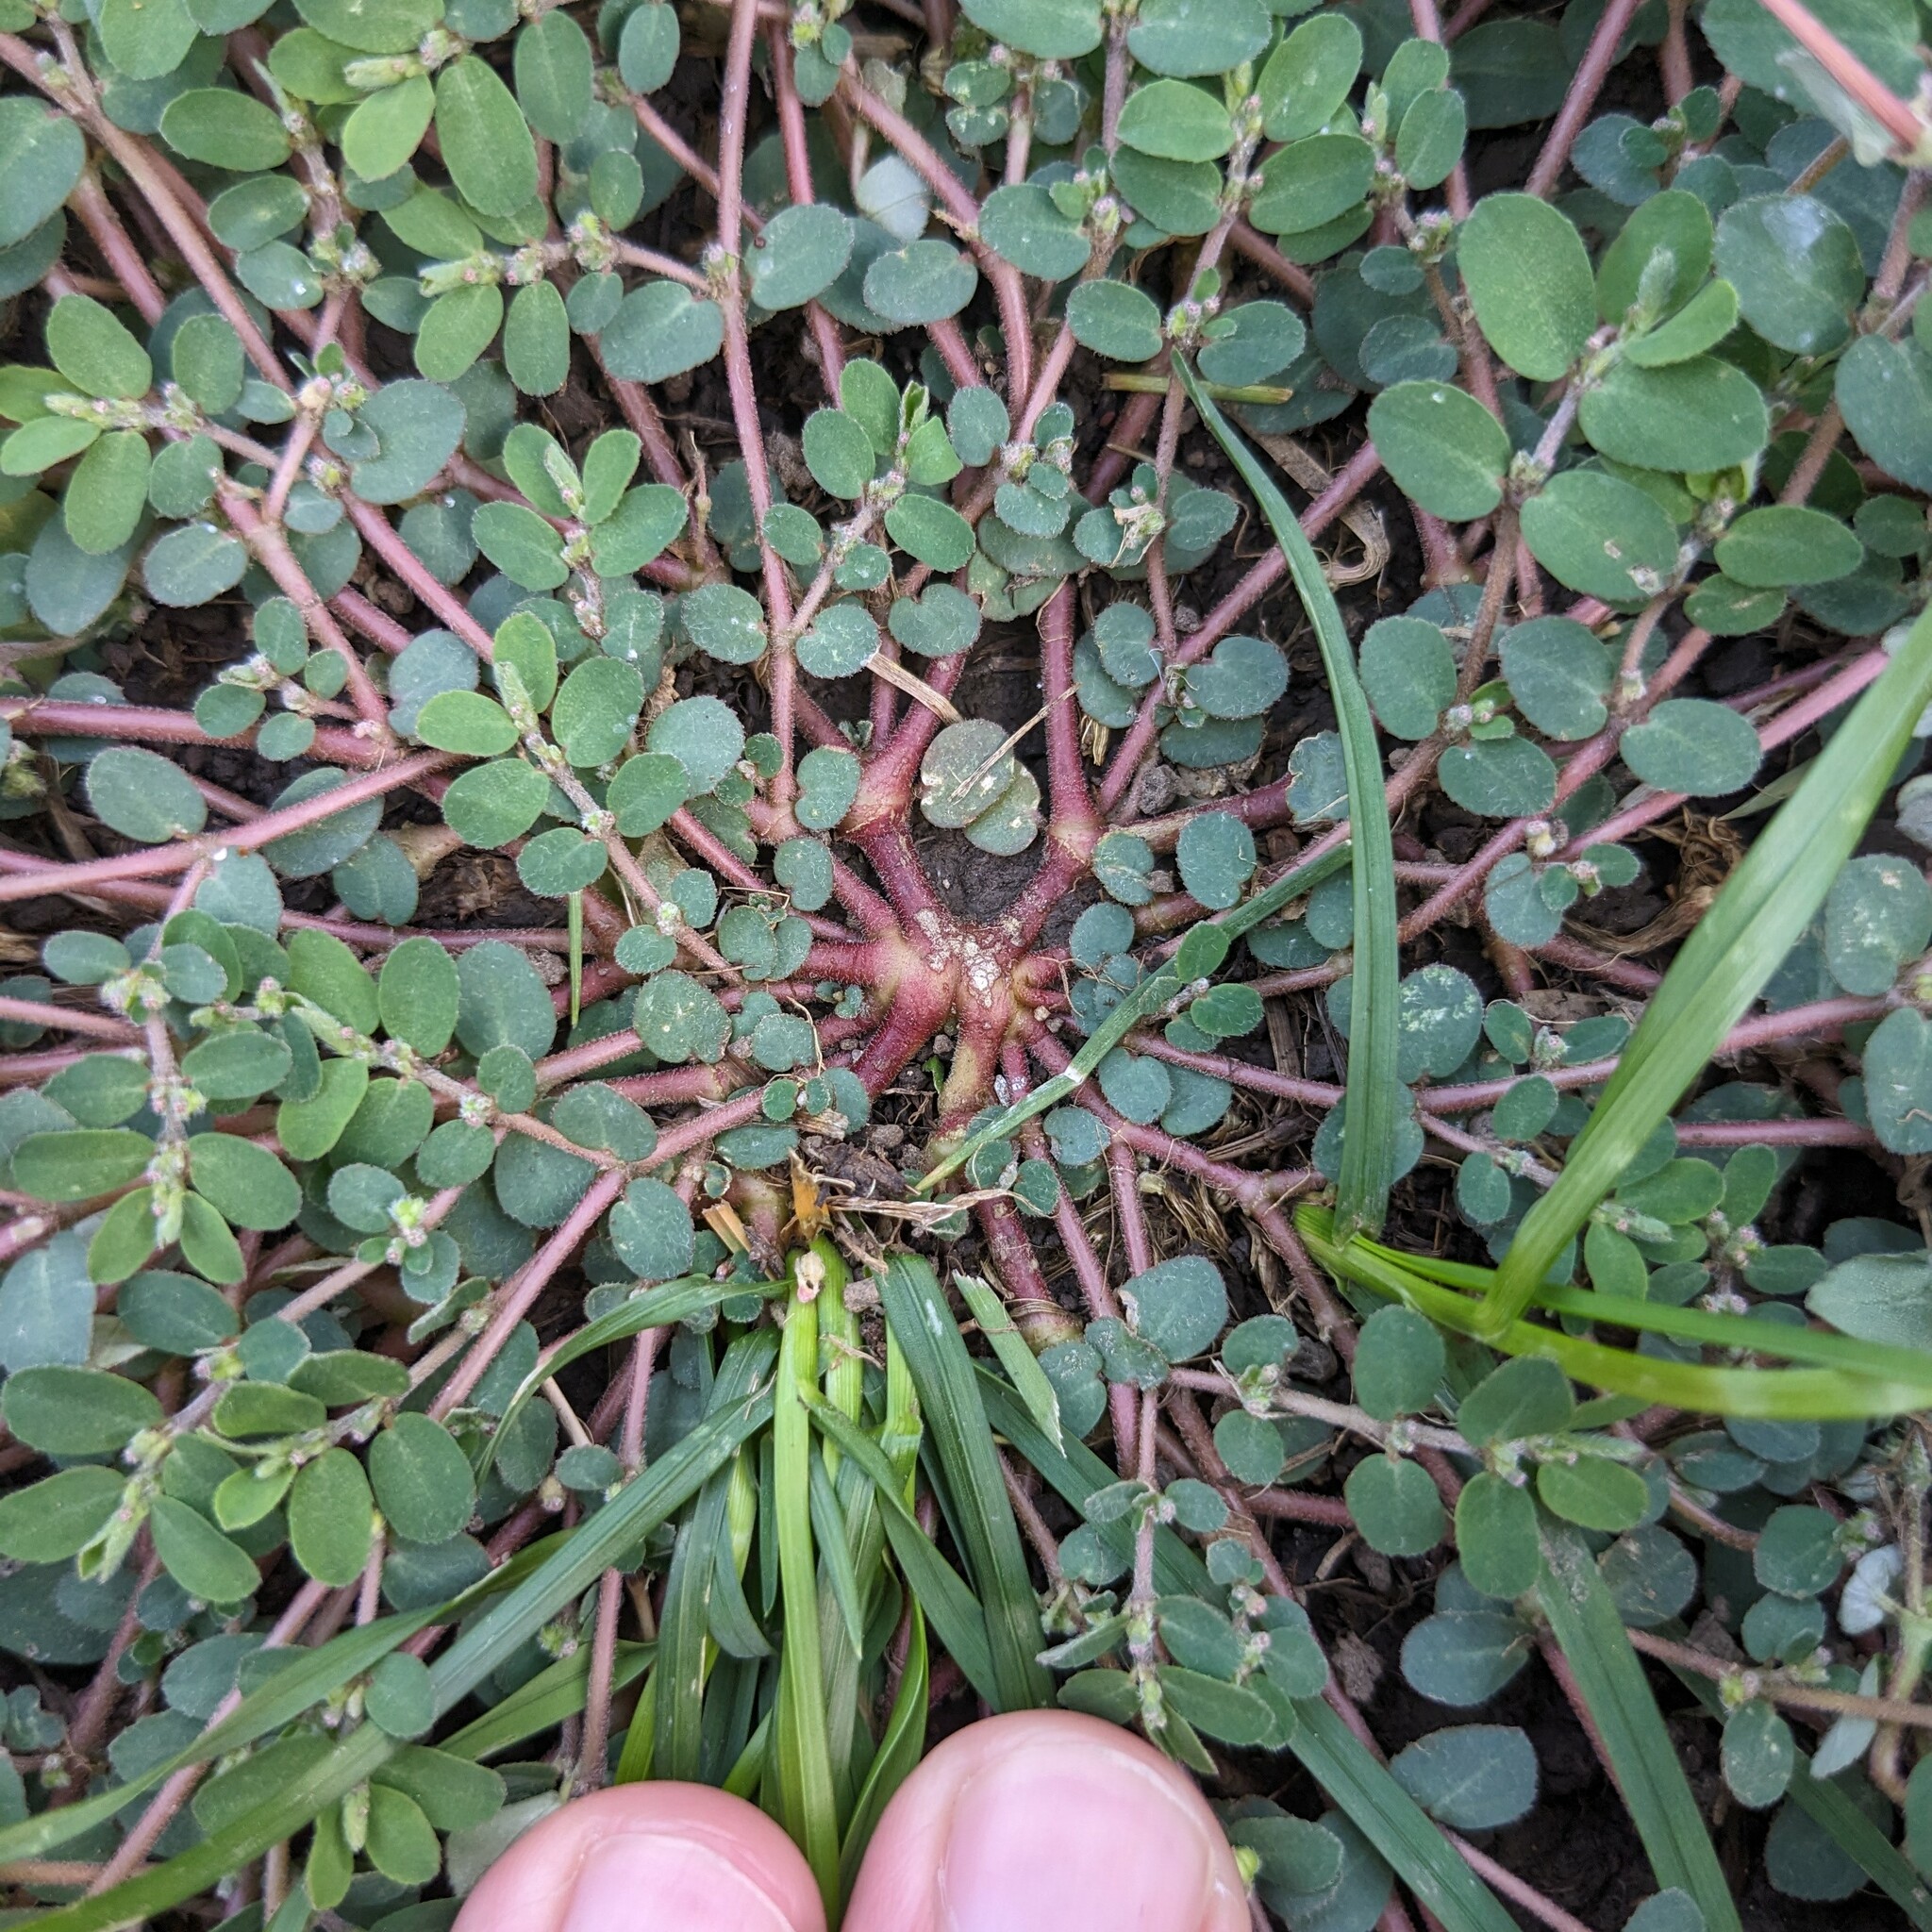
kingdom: Plantae
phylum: Tracheophyta
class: Magnoliopsida
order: Malpighiales
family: Euphorbiaceae
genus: Euphorbia
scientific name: Euphorbia prostrata
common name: Prostrate sandmat
